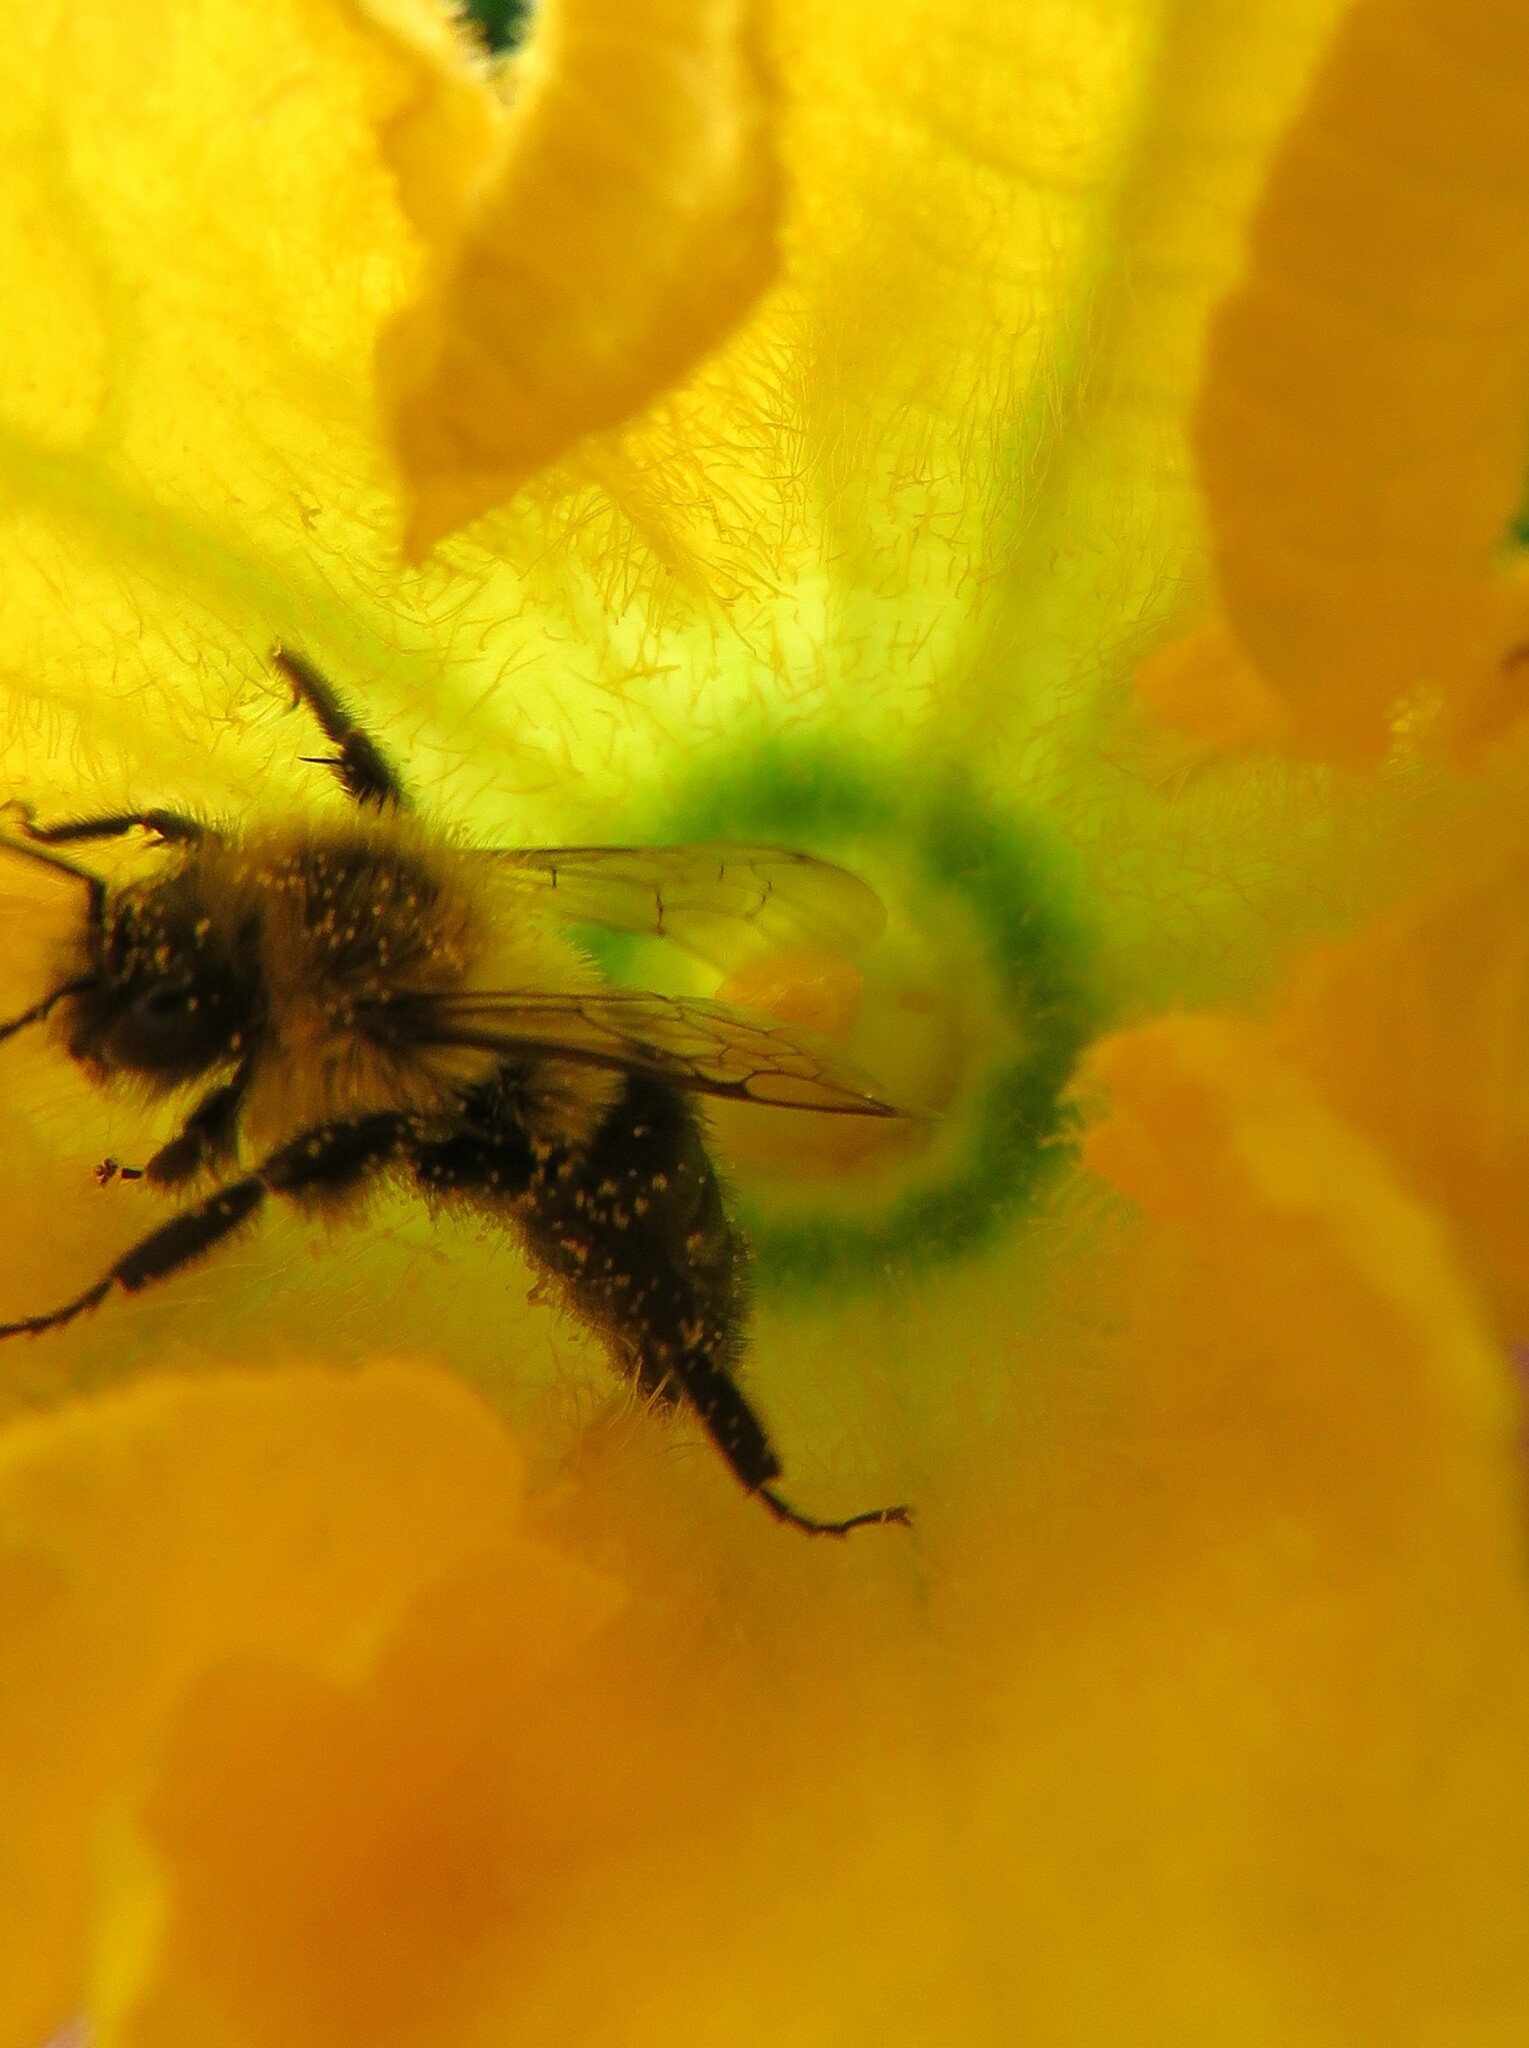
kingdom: Animalia
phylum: Arthropoda
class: Insecta
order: Hymenoptera
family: Apidae
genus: Bombus
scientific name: Bombus impatiens
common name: Common eastern bumble bee
